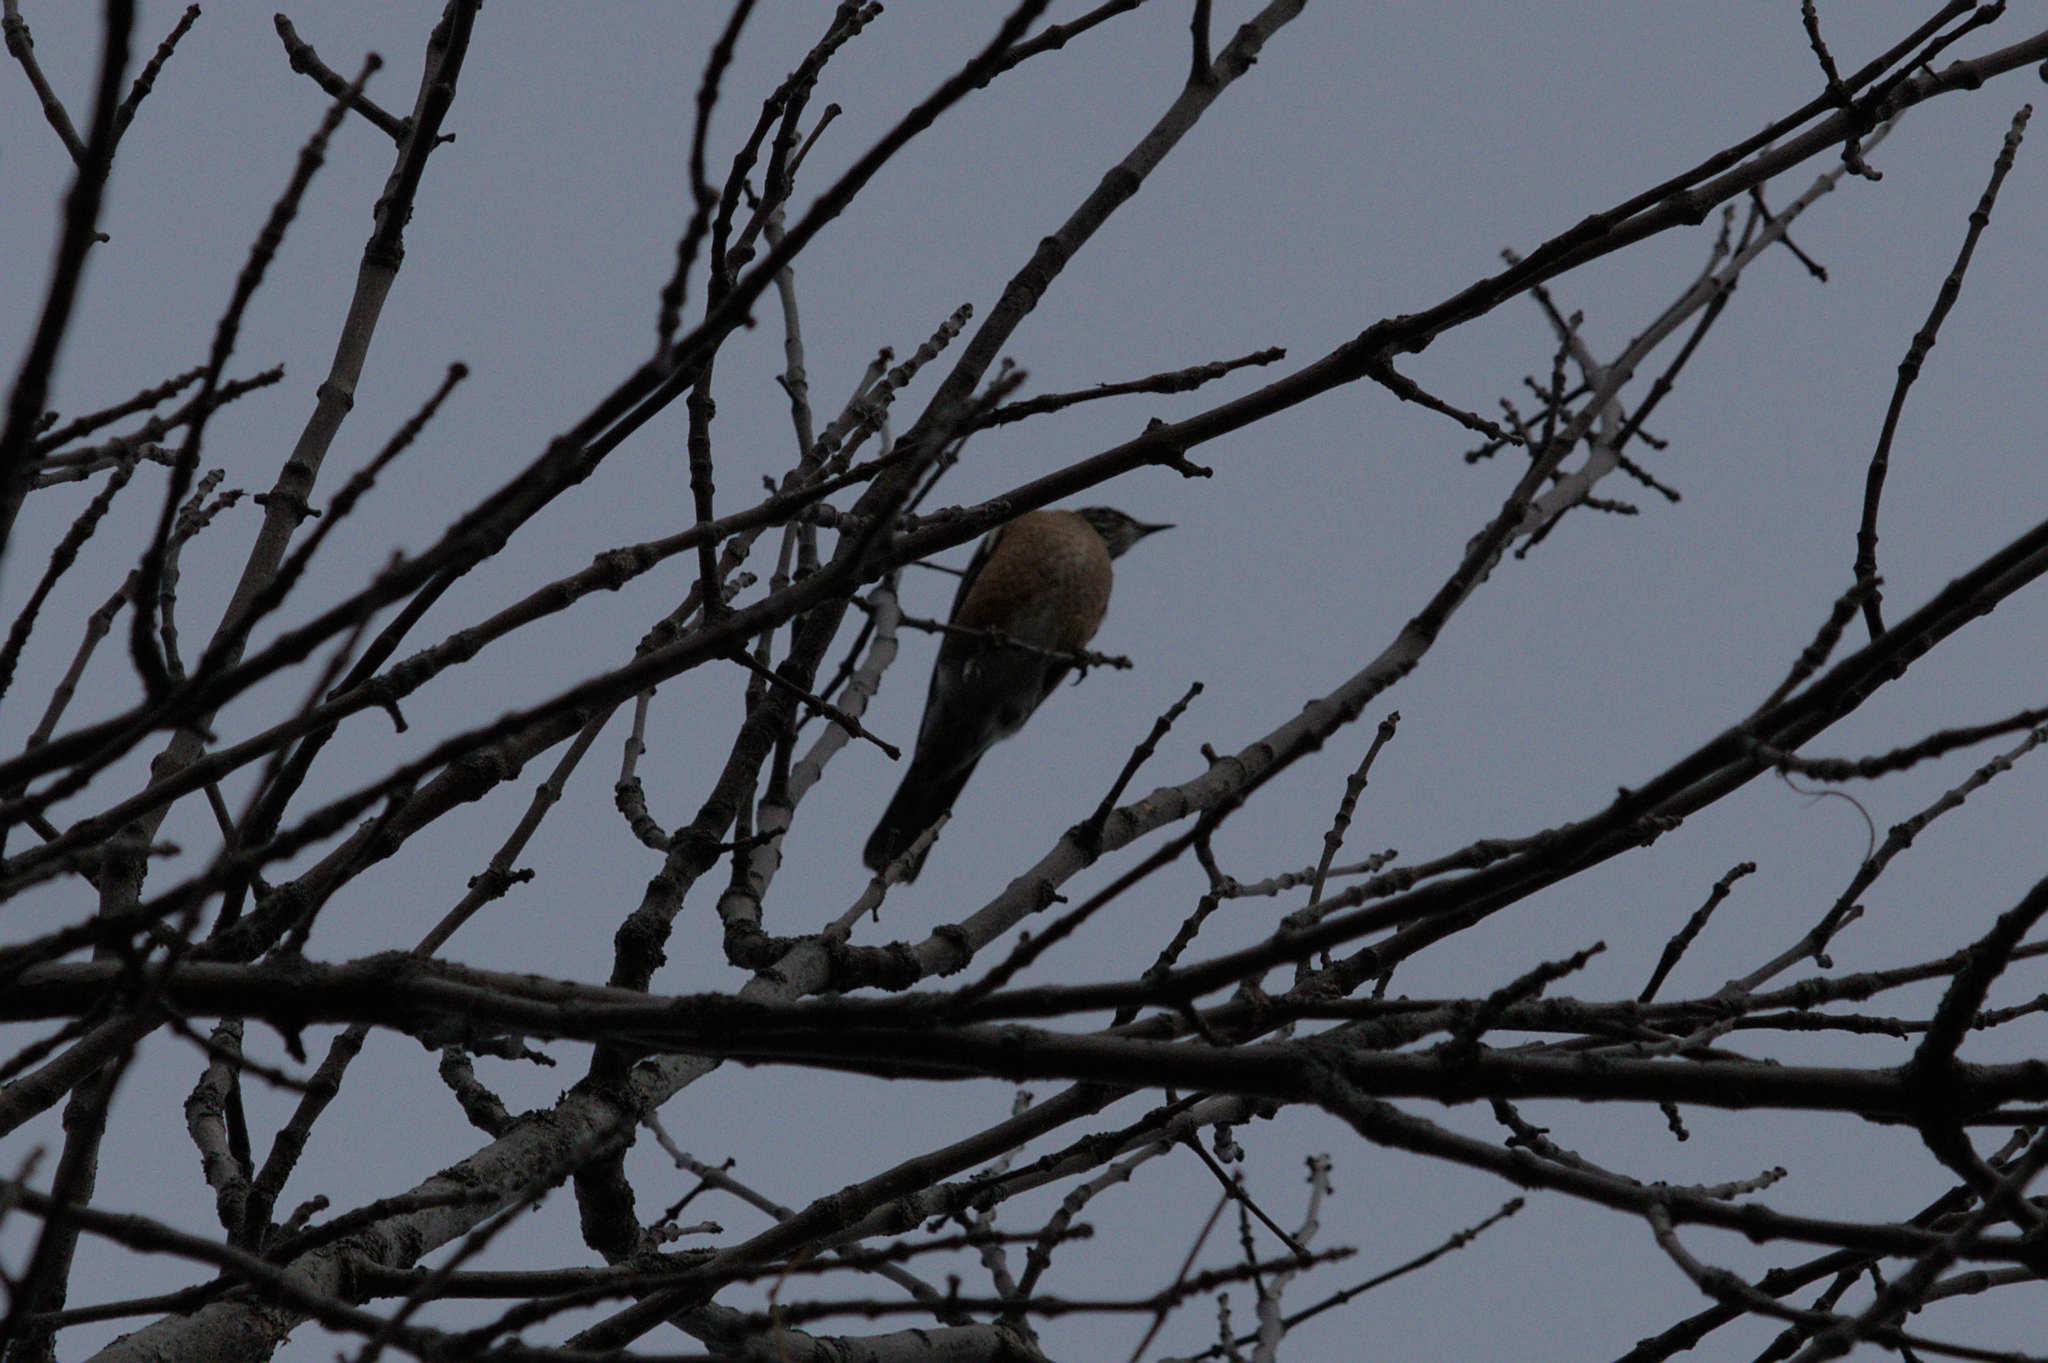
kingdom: Animalia
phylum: Chordata
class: Aves
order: Passeriformes
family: Turdidae
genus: Turdus
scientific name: Turdus migratorius
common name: American robin
